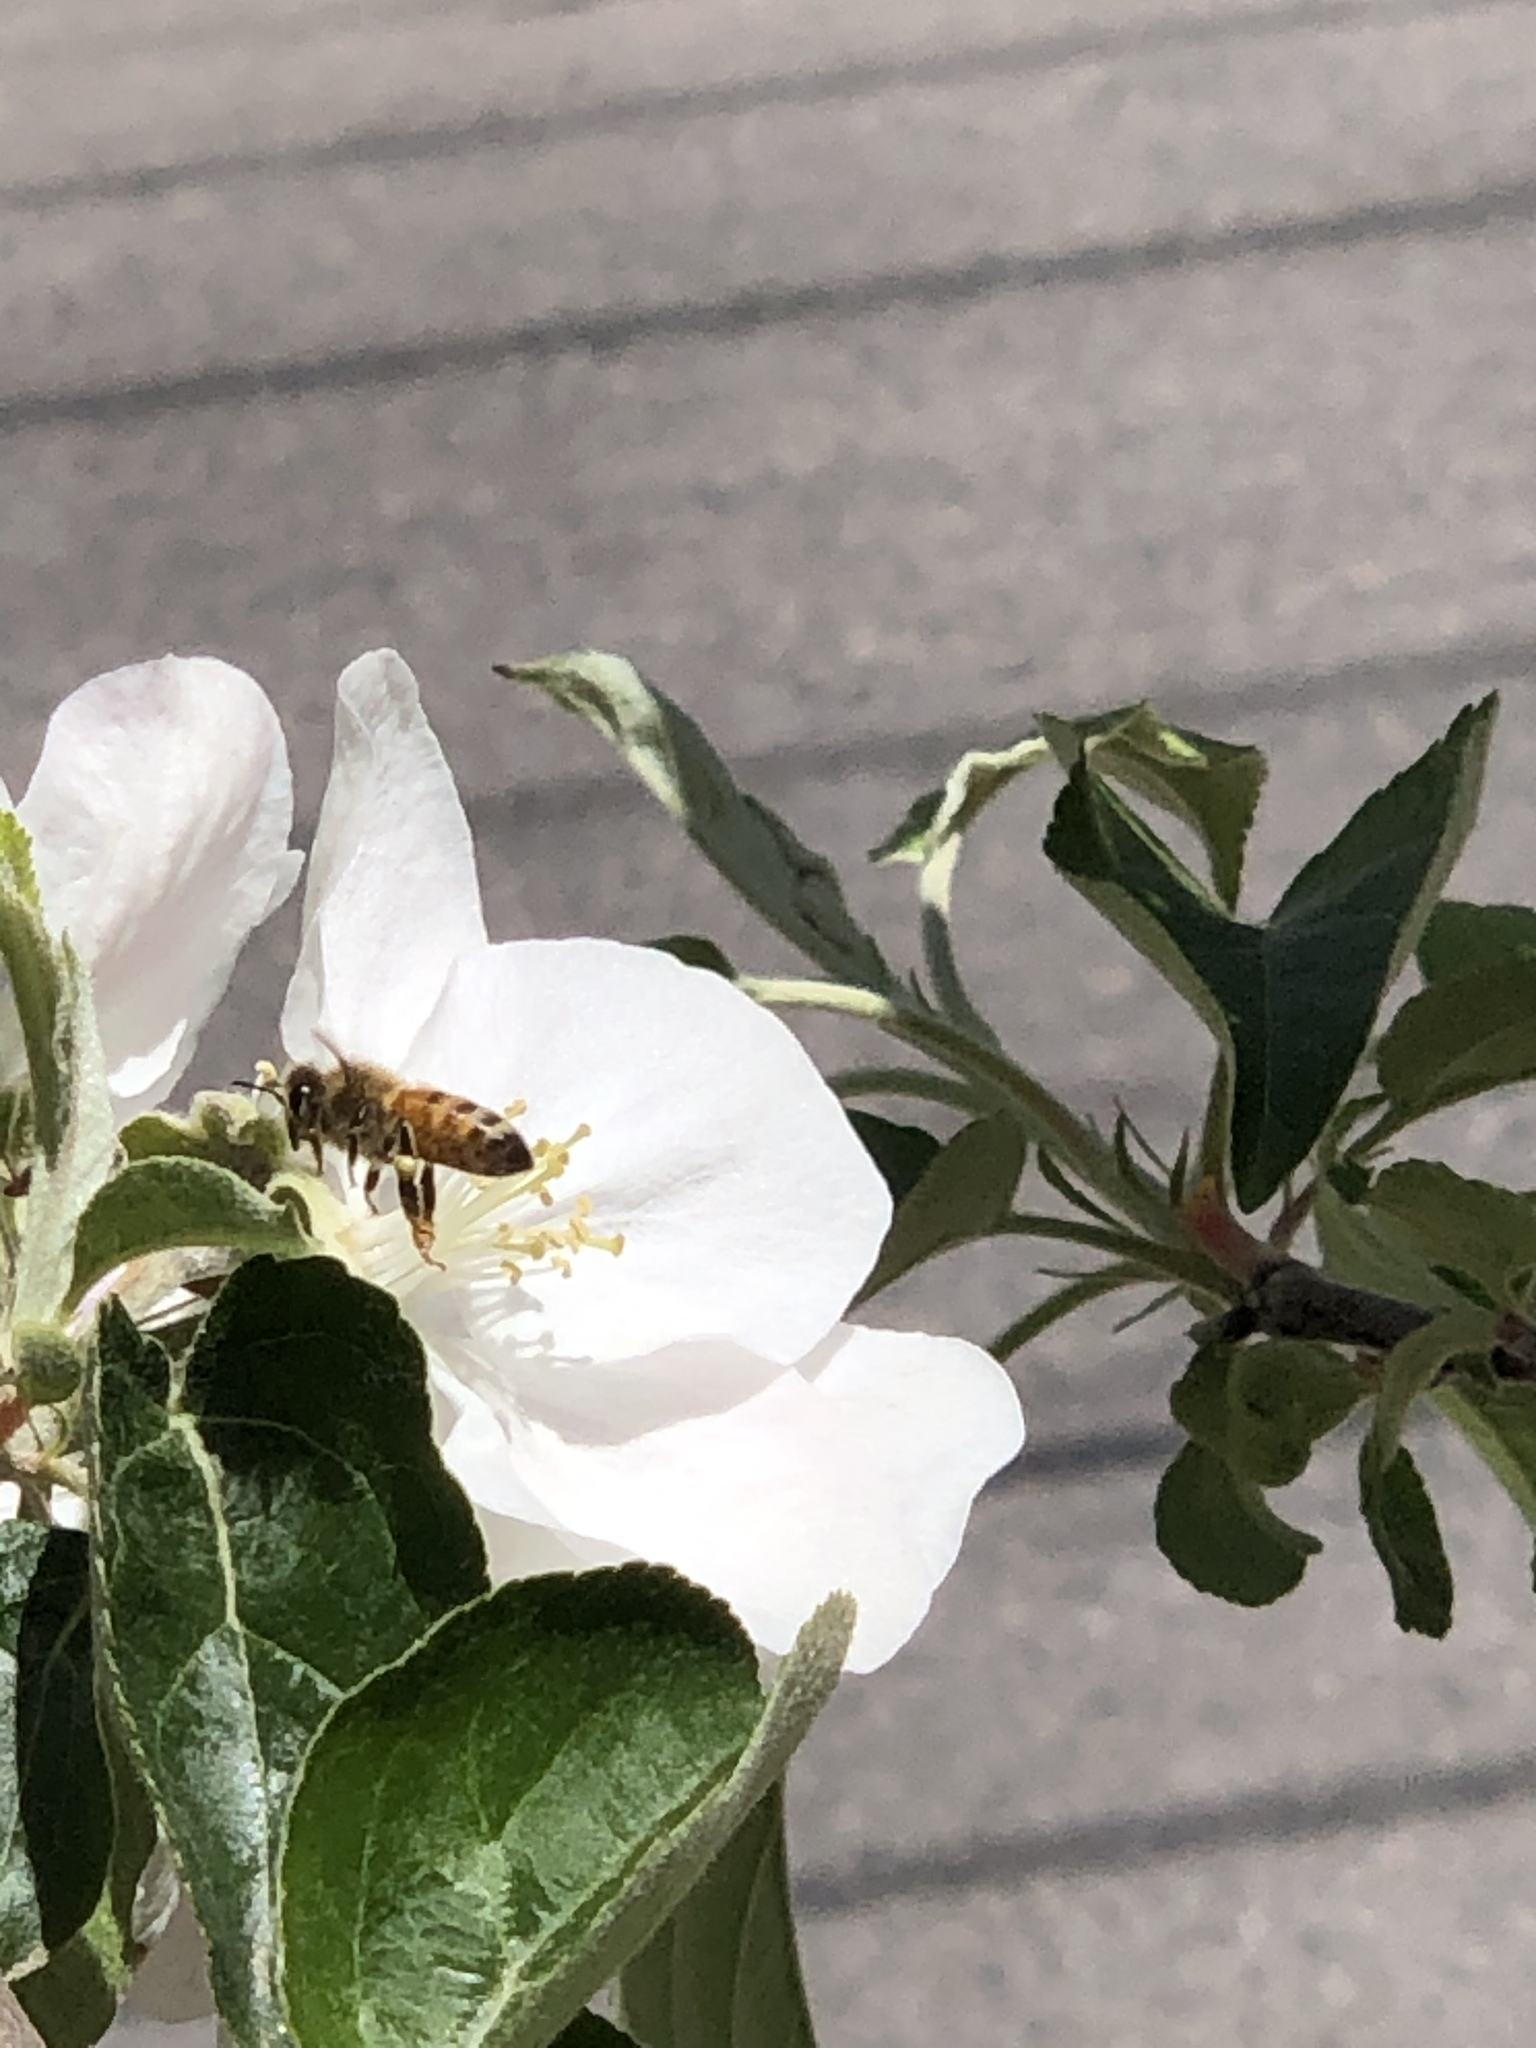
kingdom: Animalia
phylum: Arthropoda
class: Insecta
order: Hymenoptera
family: Apidae
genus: Apis
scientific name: Apis mellifera
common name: Honey bee
